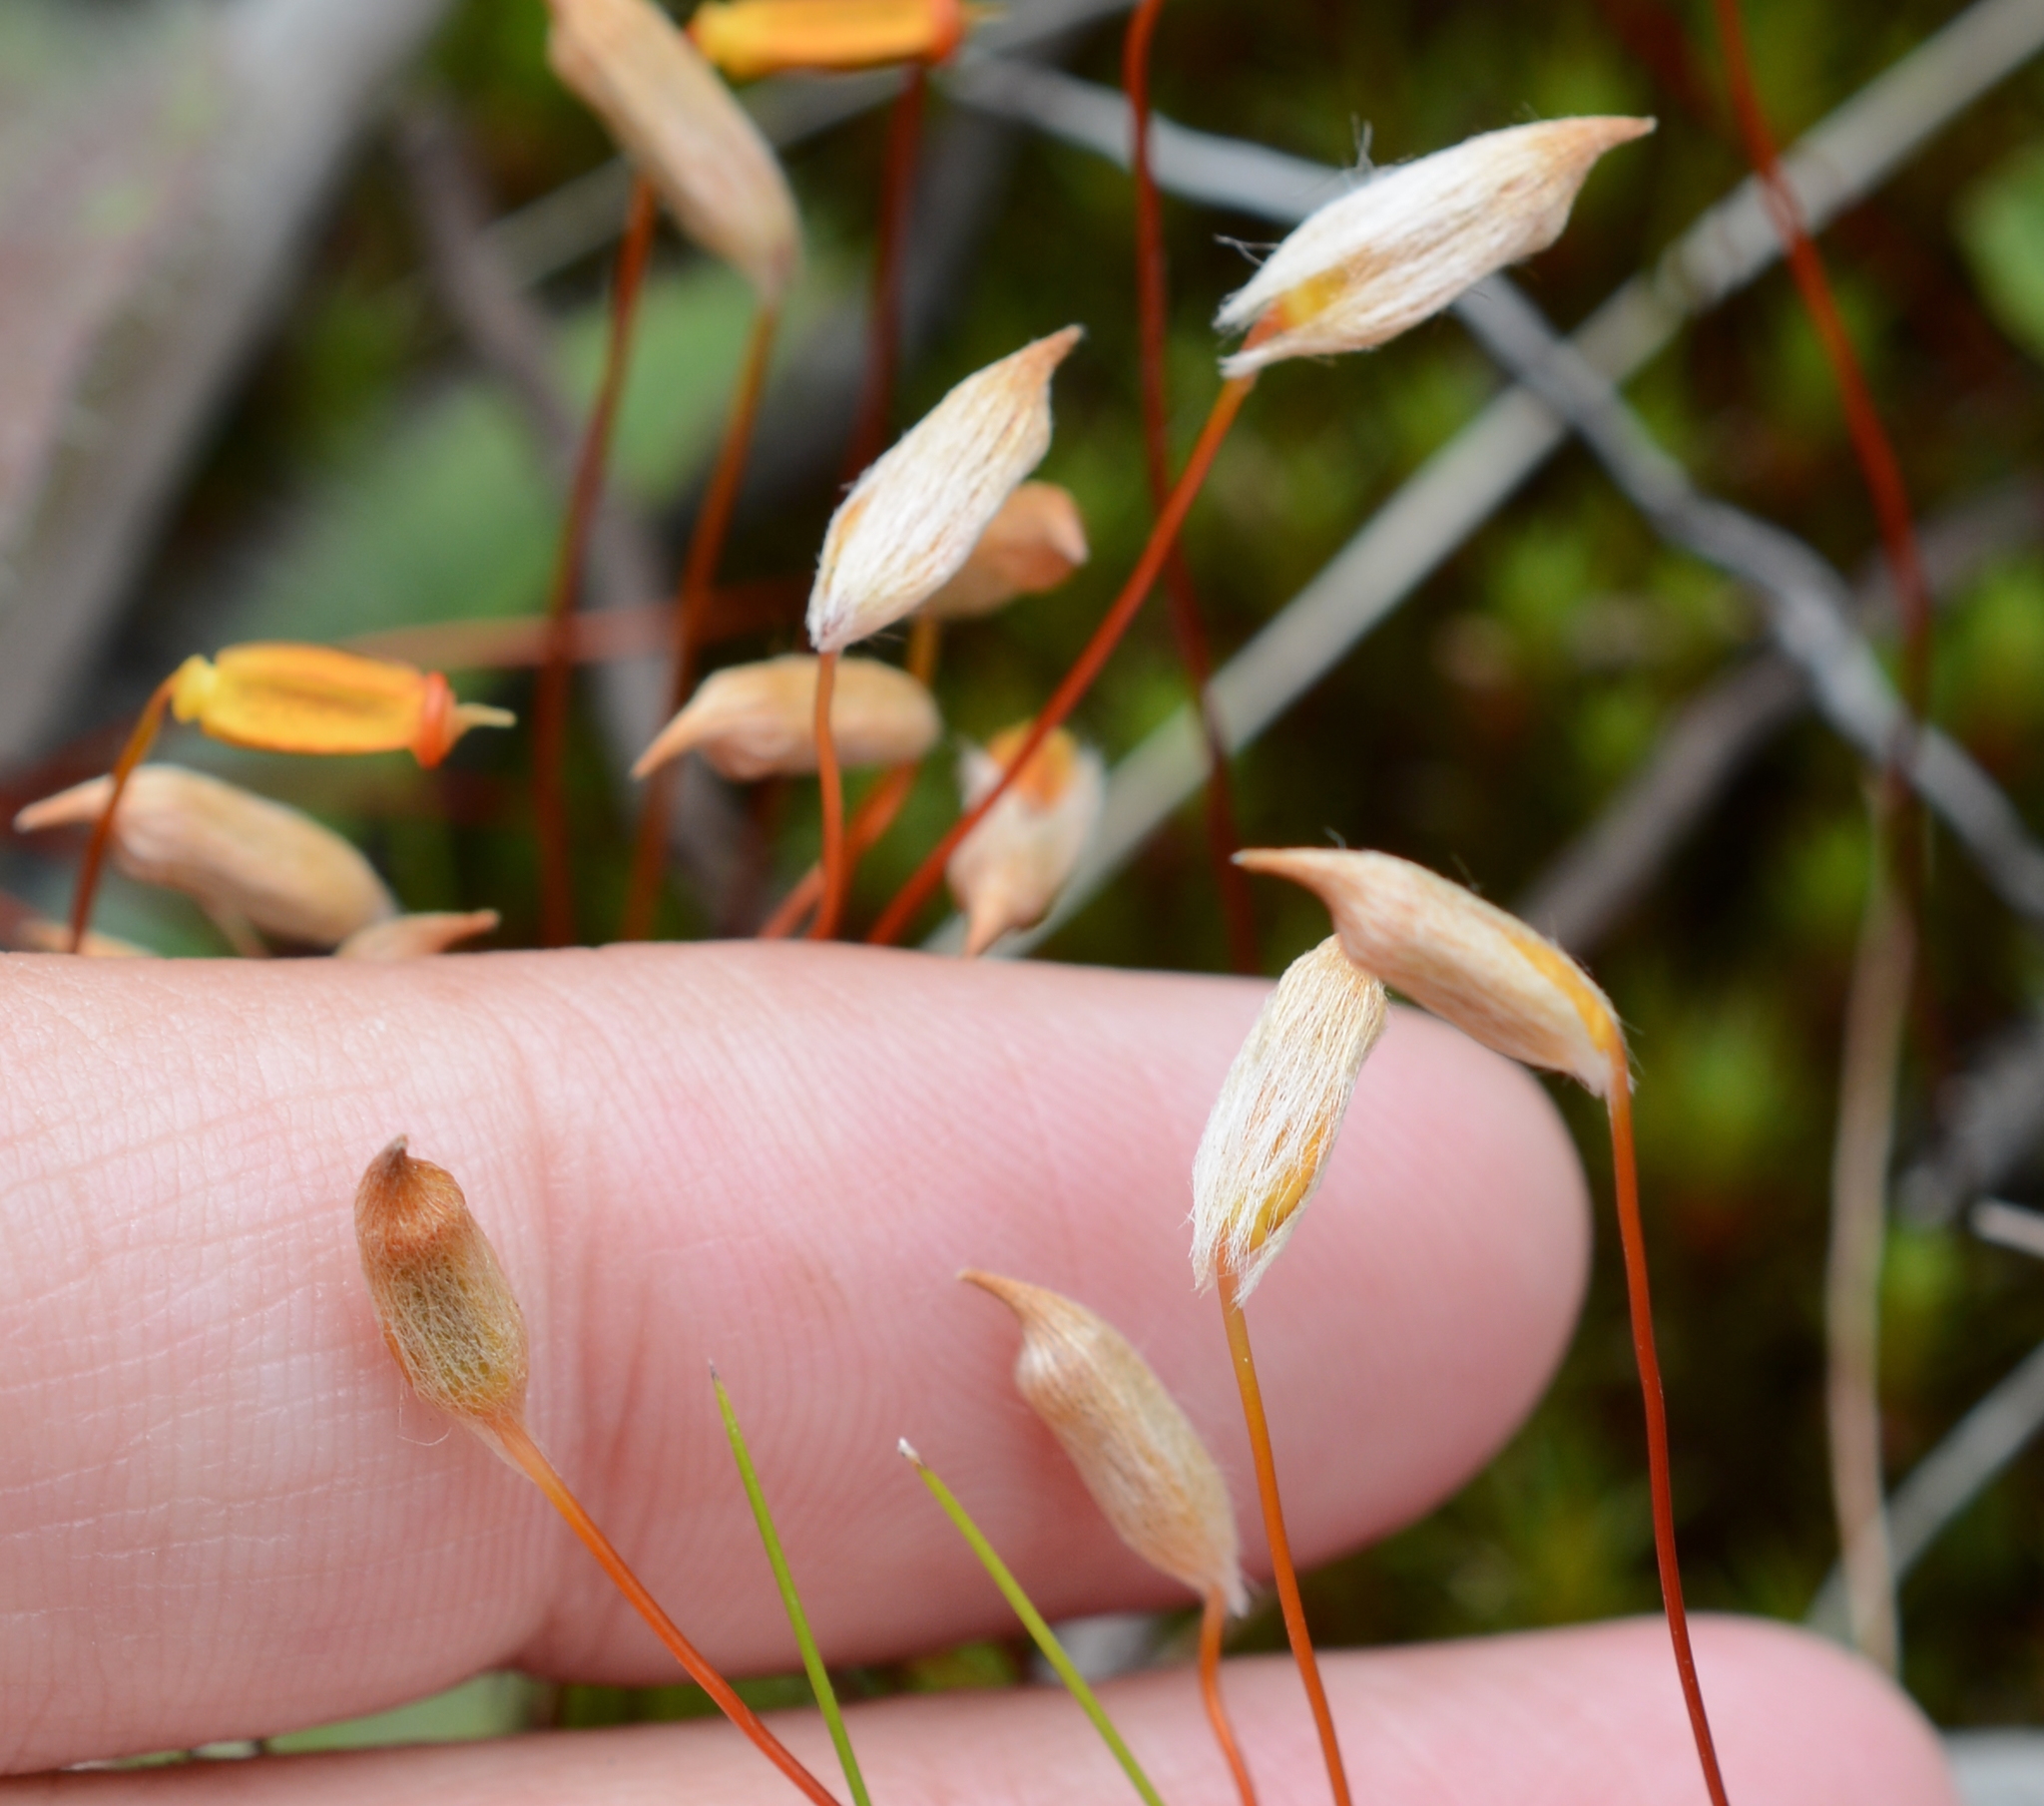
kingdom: Plantae
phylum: Bryophyta
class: Polytrichopsida
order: Polytrichales
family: Polytrichaceae
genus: Polytrichum
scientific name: Polytrichum juniperinum
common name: Juniper haircap moss
